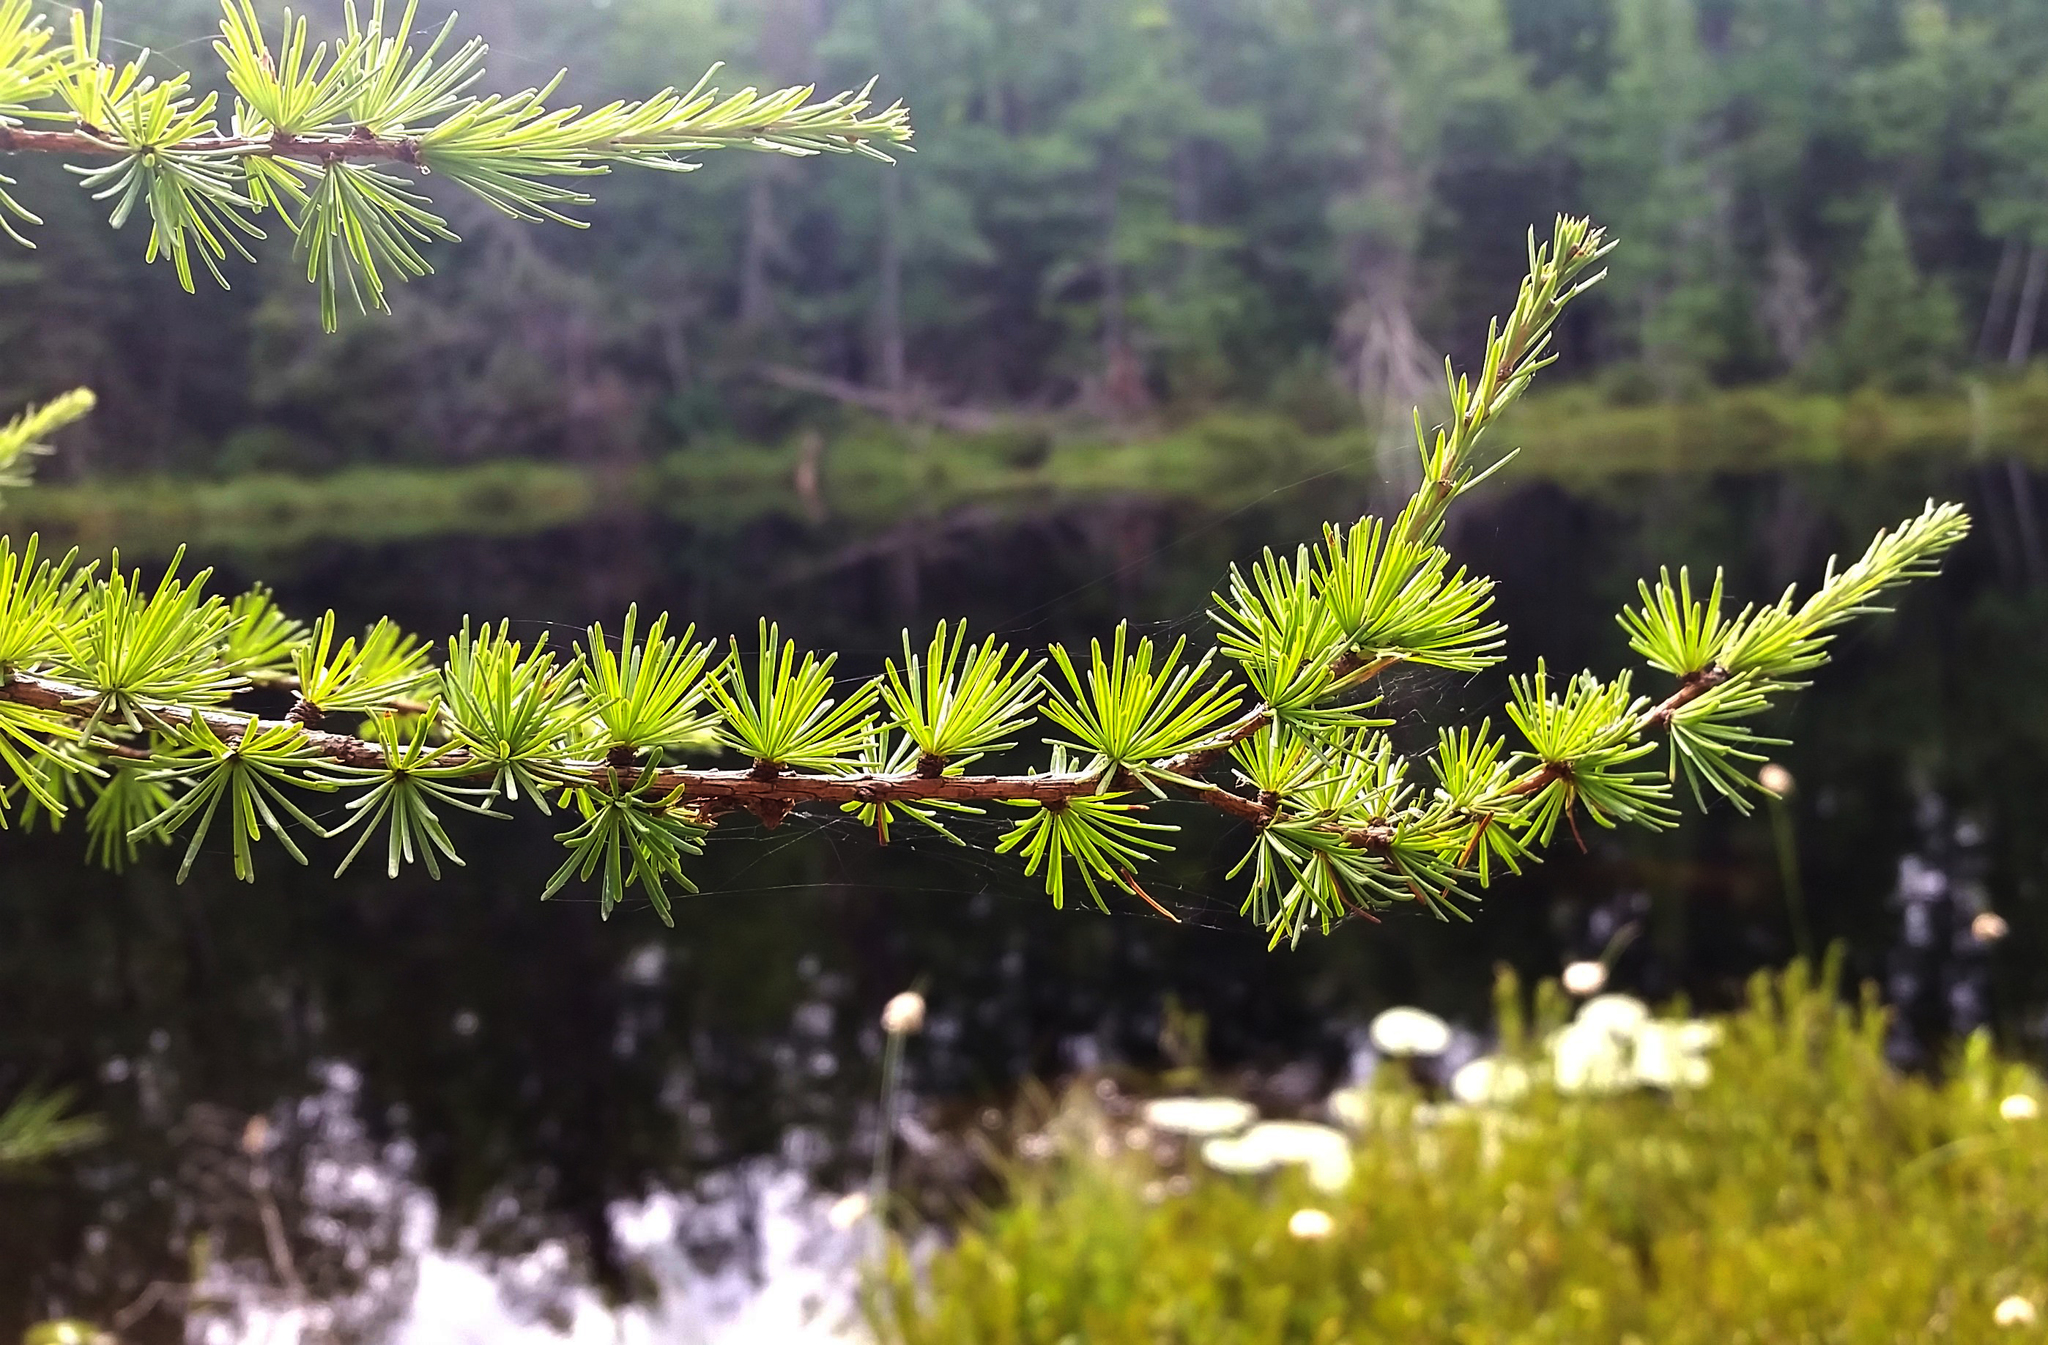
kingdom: Plantae
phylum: Tracheophyta
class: Pinopsida
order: Pinales
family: Pinaceae
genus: Larix
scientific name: Larix laricina
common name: American larch
